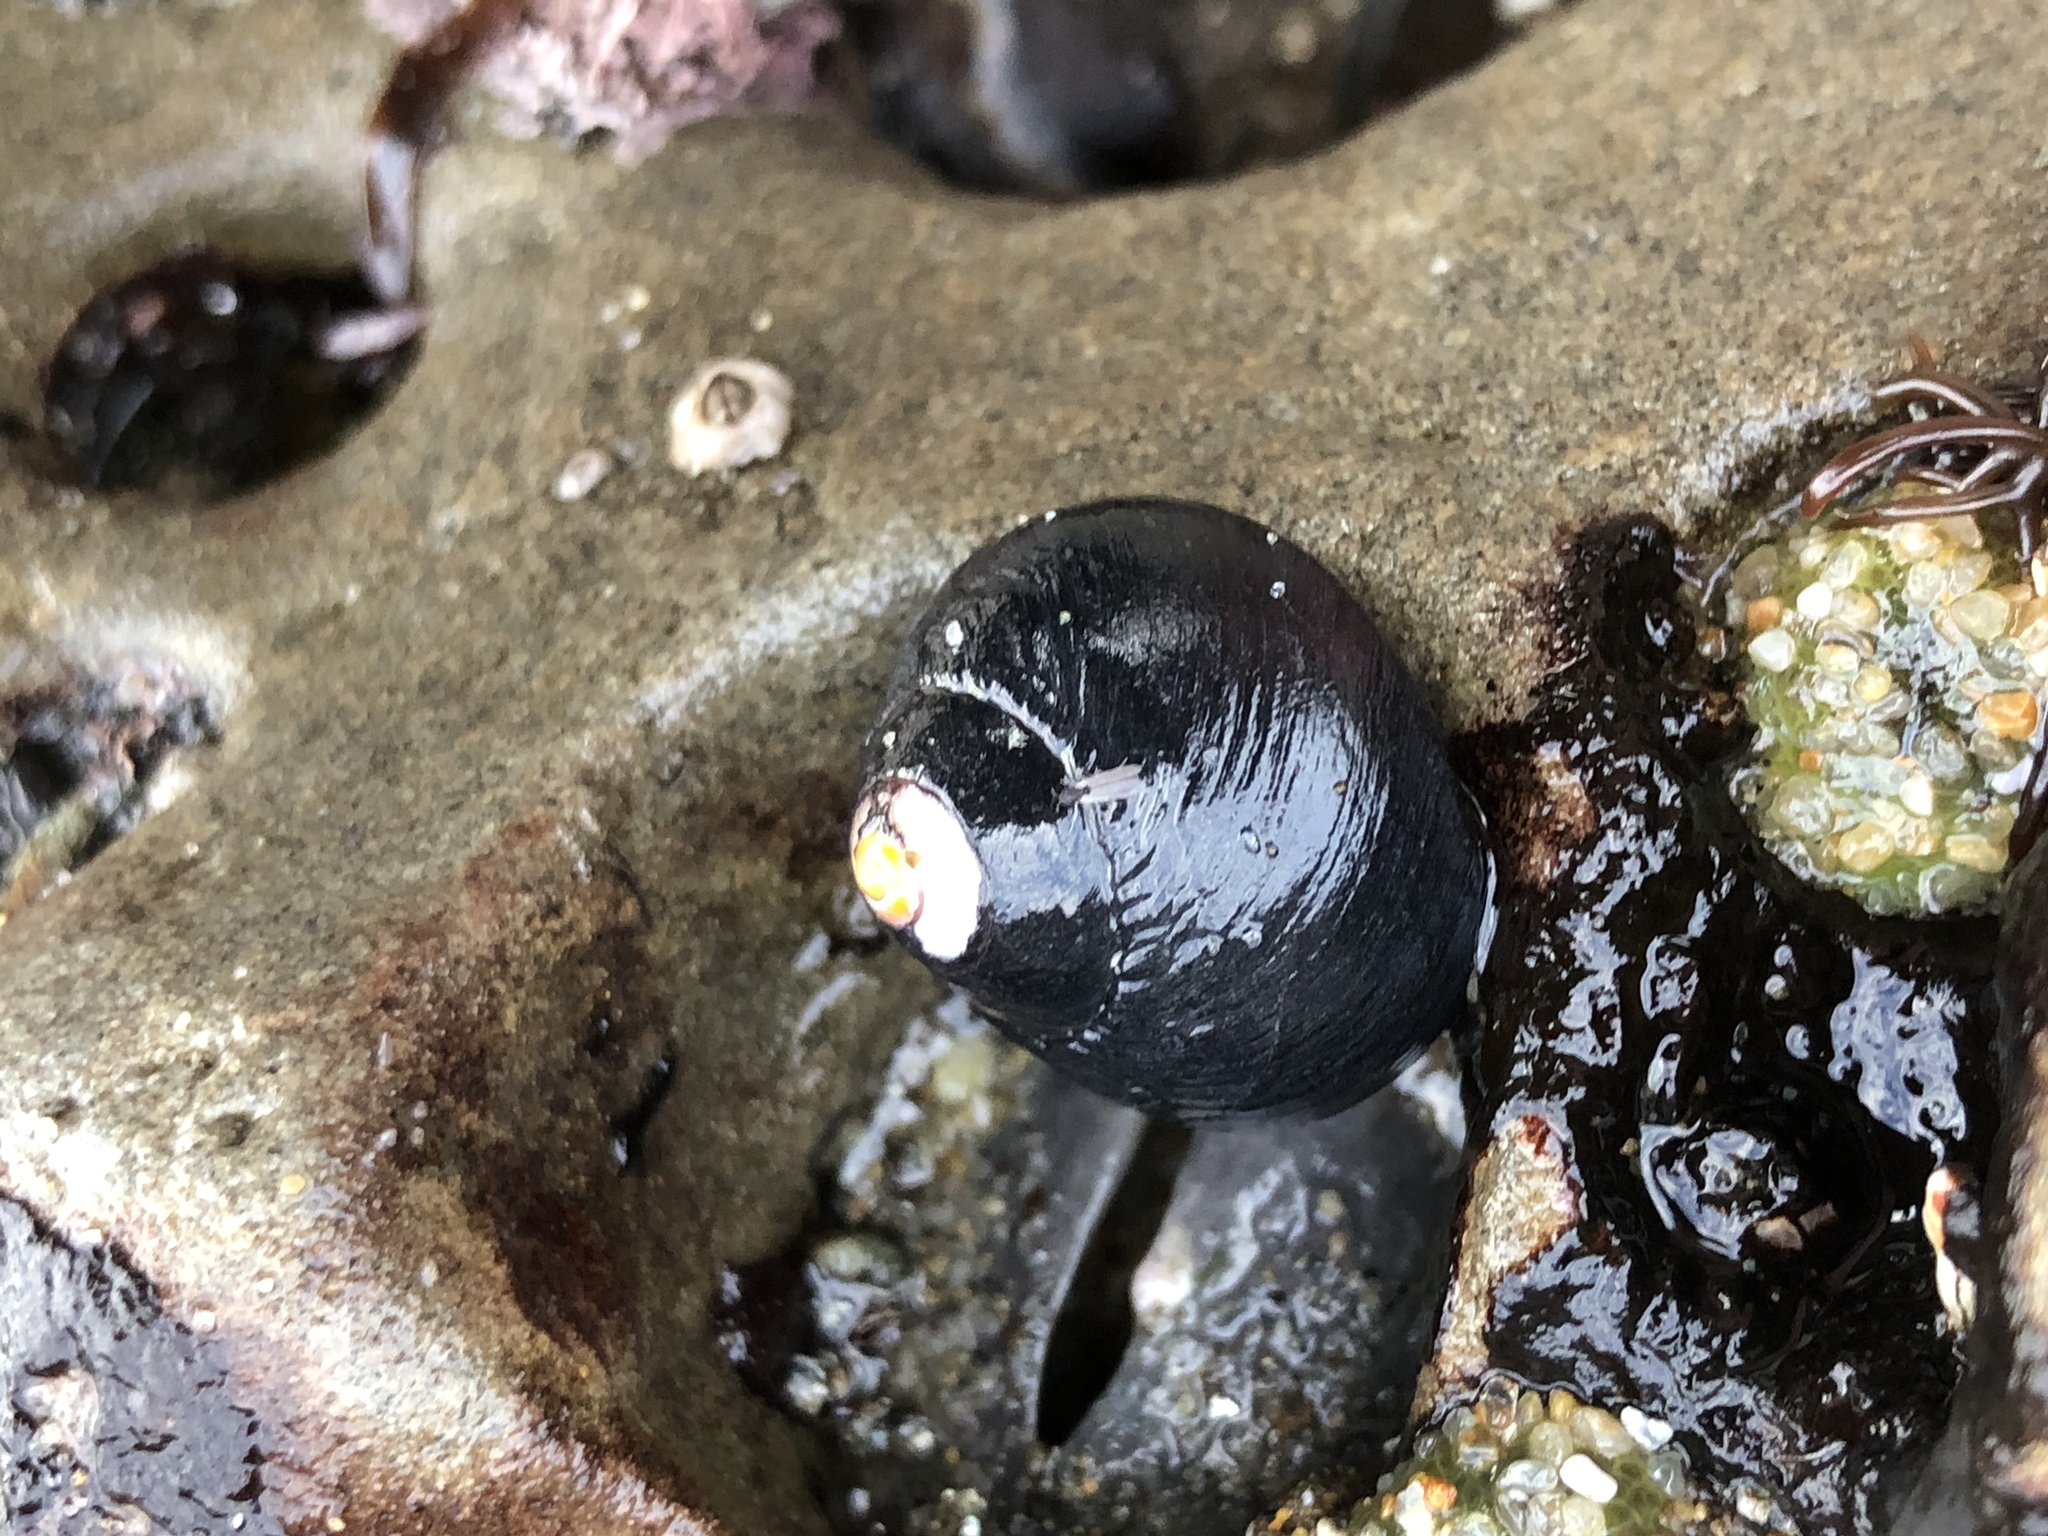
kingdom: Animalia
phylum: Mollusca
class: Gastropoda
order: Trochida
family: Tegulidae
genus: Tegula
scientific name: Tegula funebralis
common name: Black tegula
